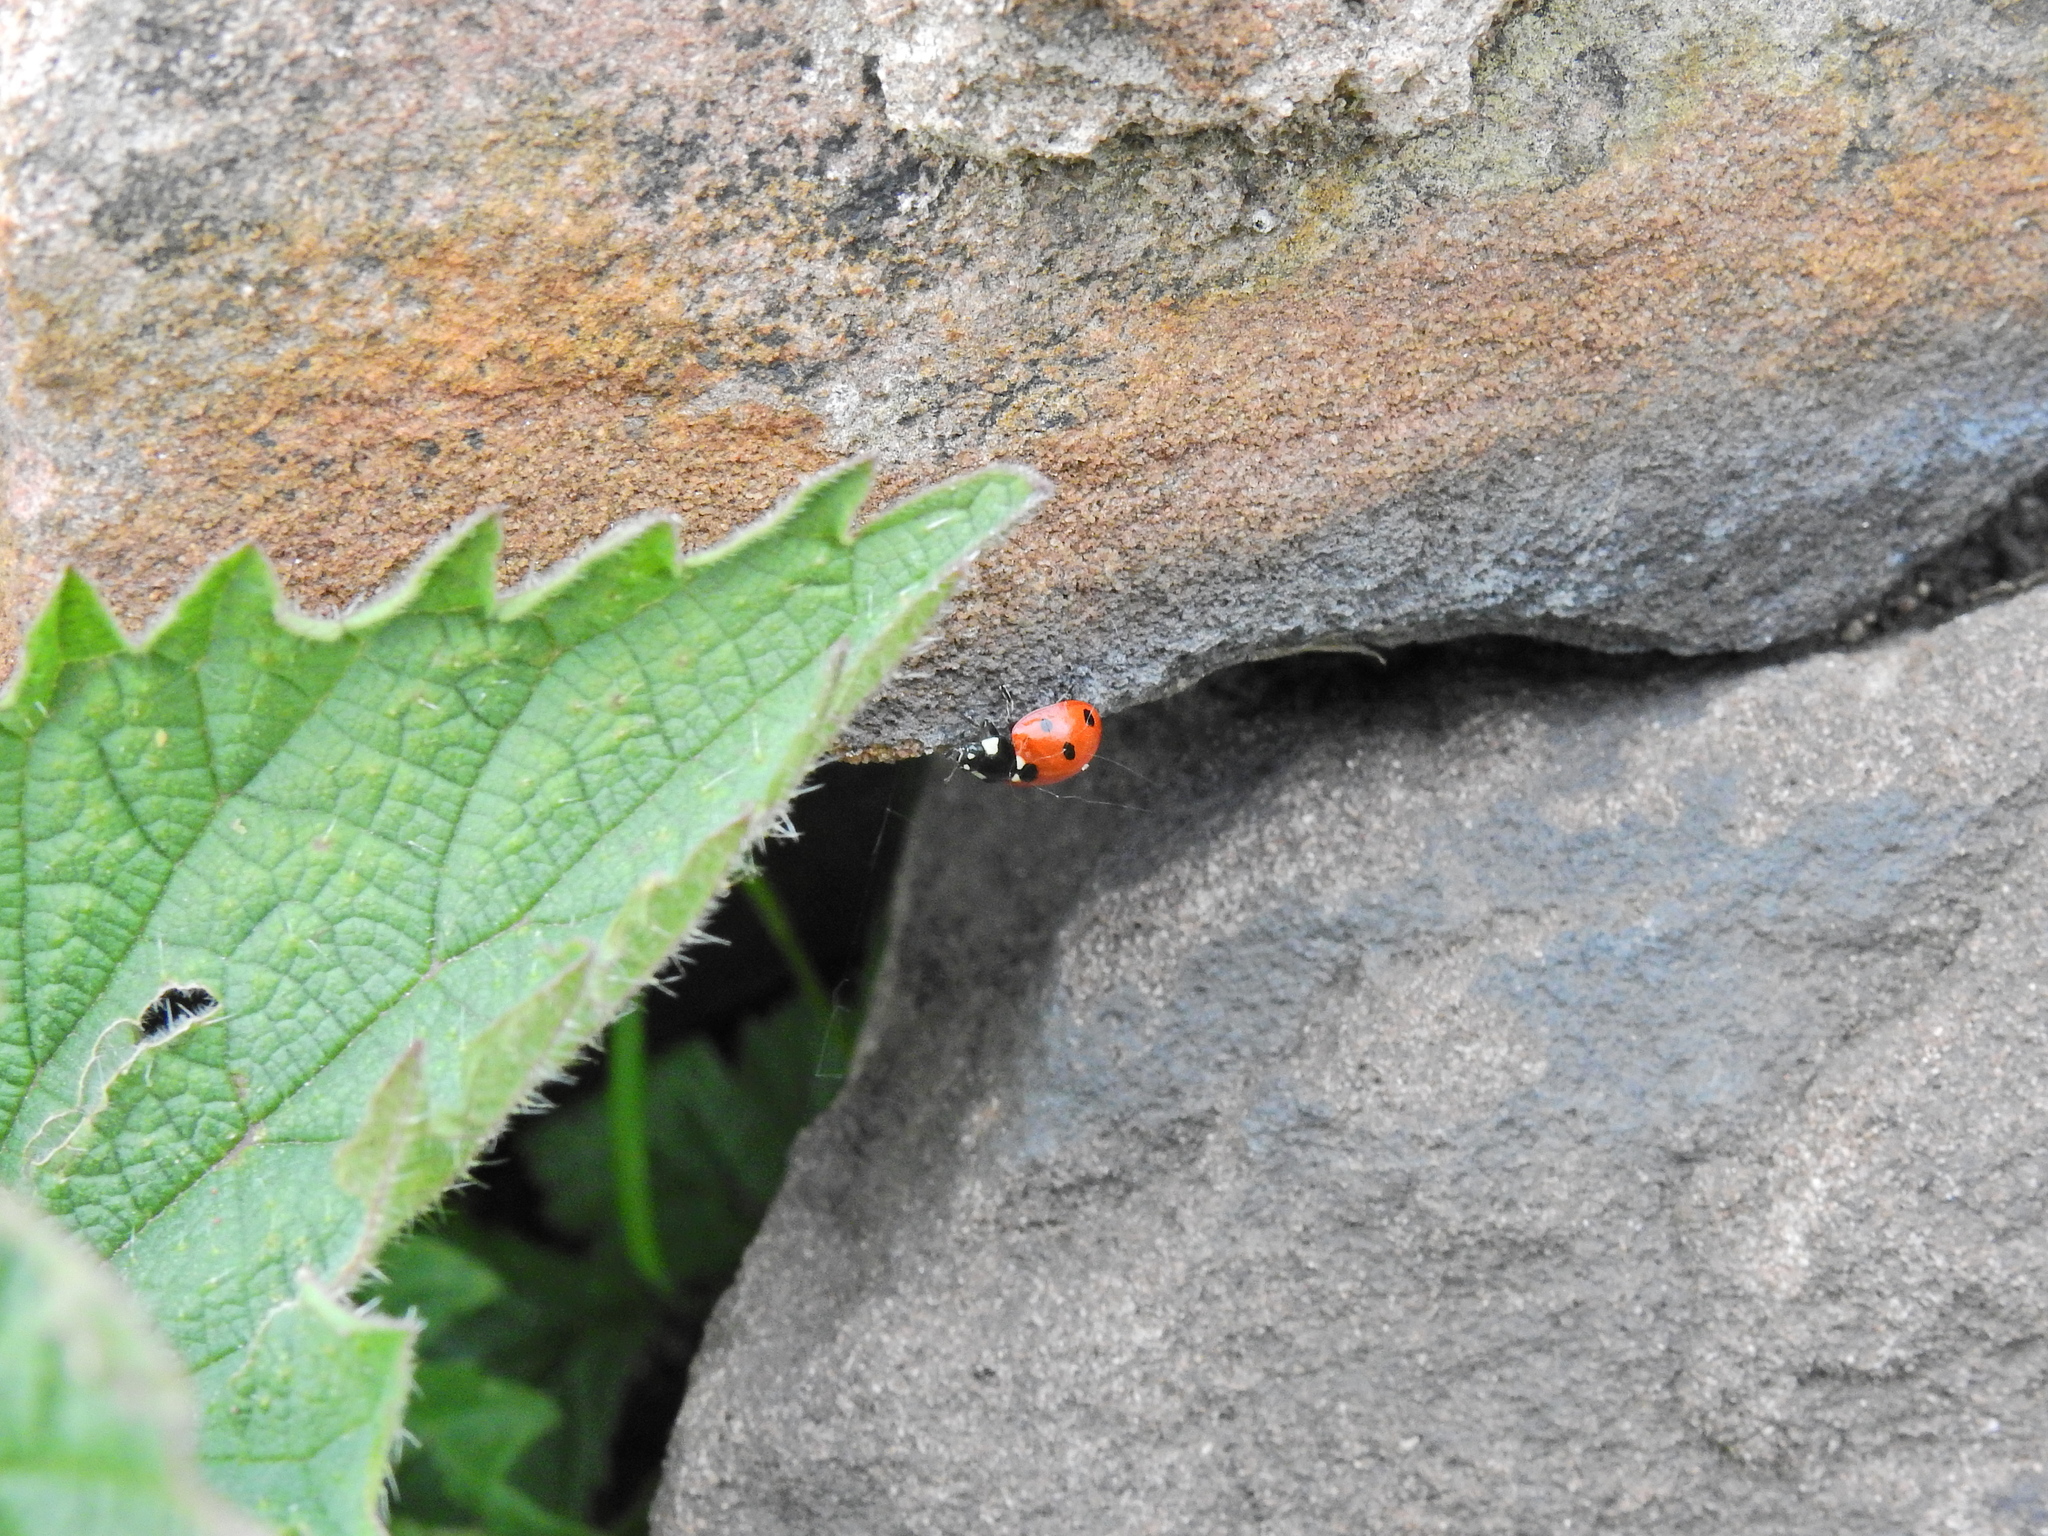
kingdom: Animalia
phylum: Arthropoda
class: Insecta
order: Coleoptera
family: Coccinellidae
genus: Coccinella
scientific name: Coccinella septempunctata
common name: Sevenspotted lady beetle
